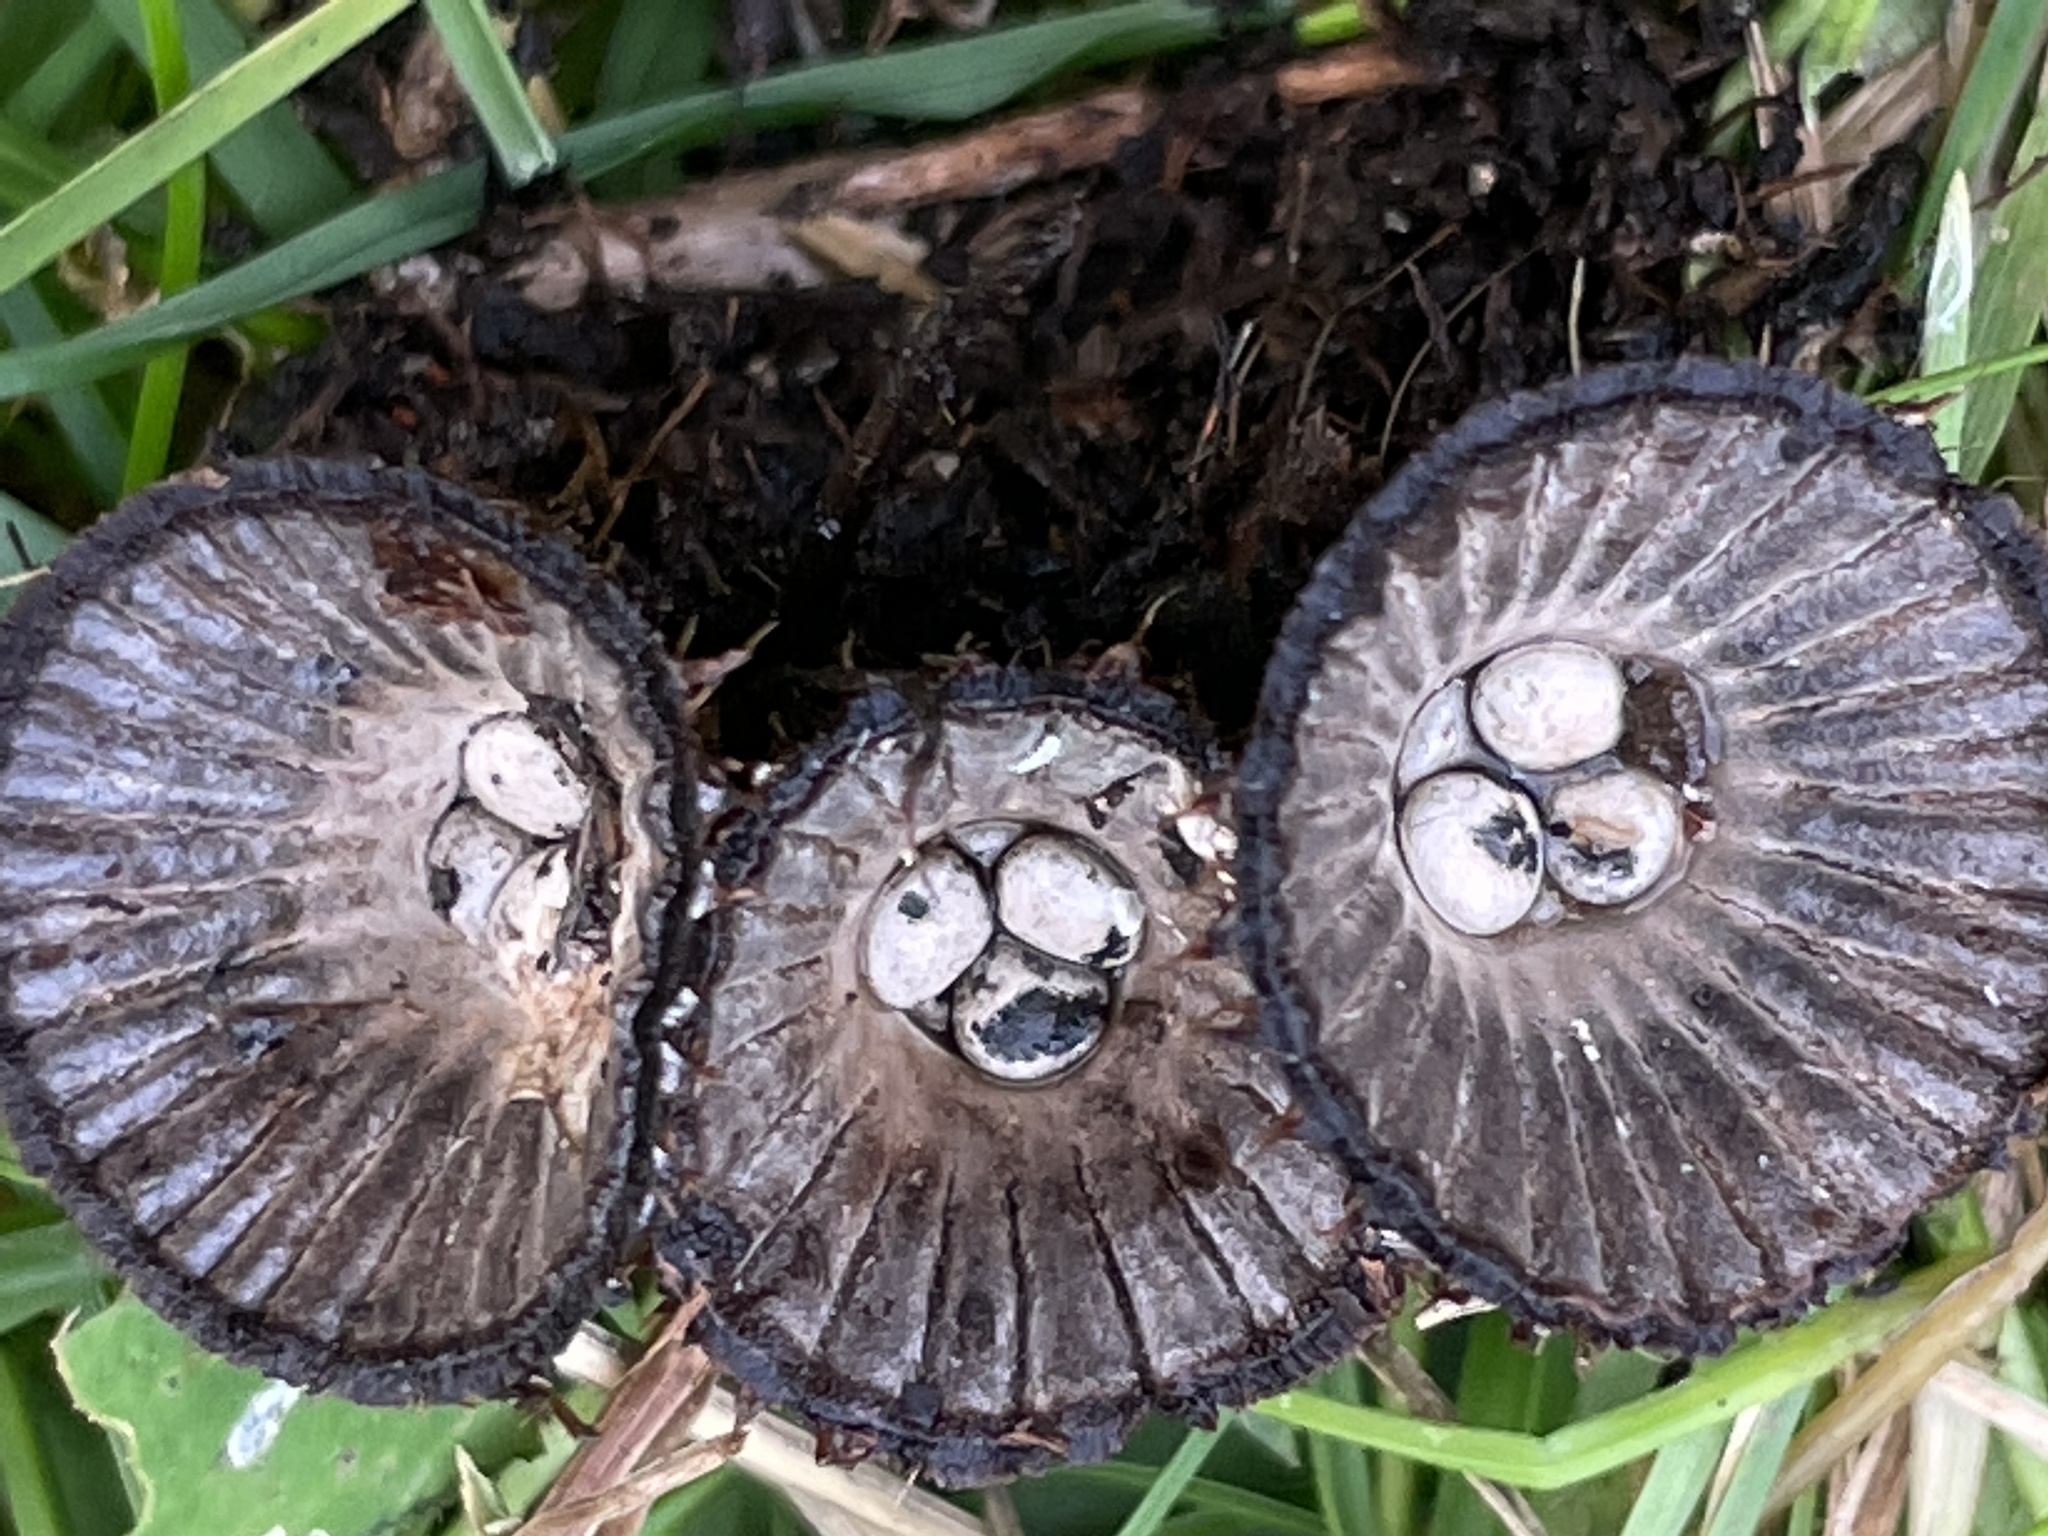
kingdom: Fungi
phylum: Basidiomycota
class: Agaricomycetes
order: Agaricales
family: Agaricaceae
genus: Cyathus
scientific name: Cyathus striatus
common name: Fluted bird's nest
